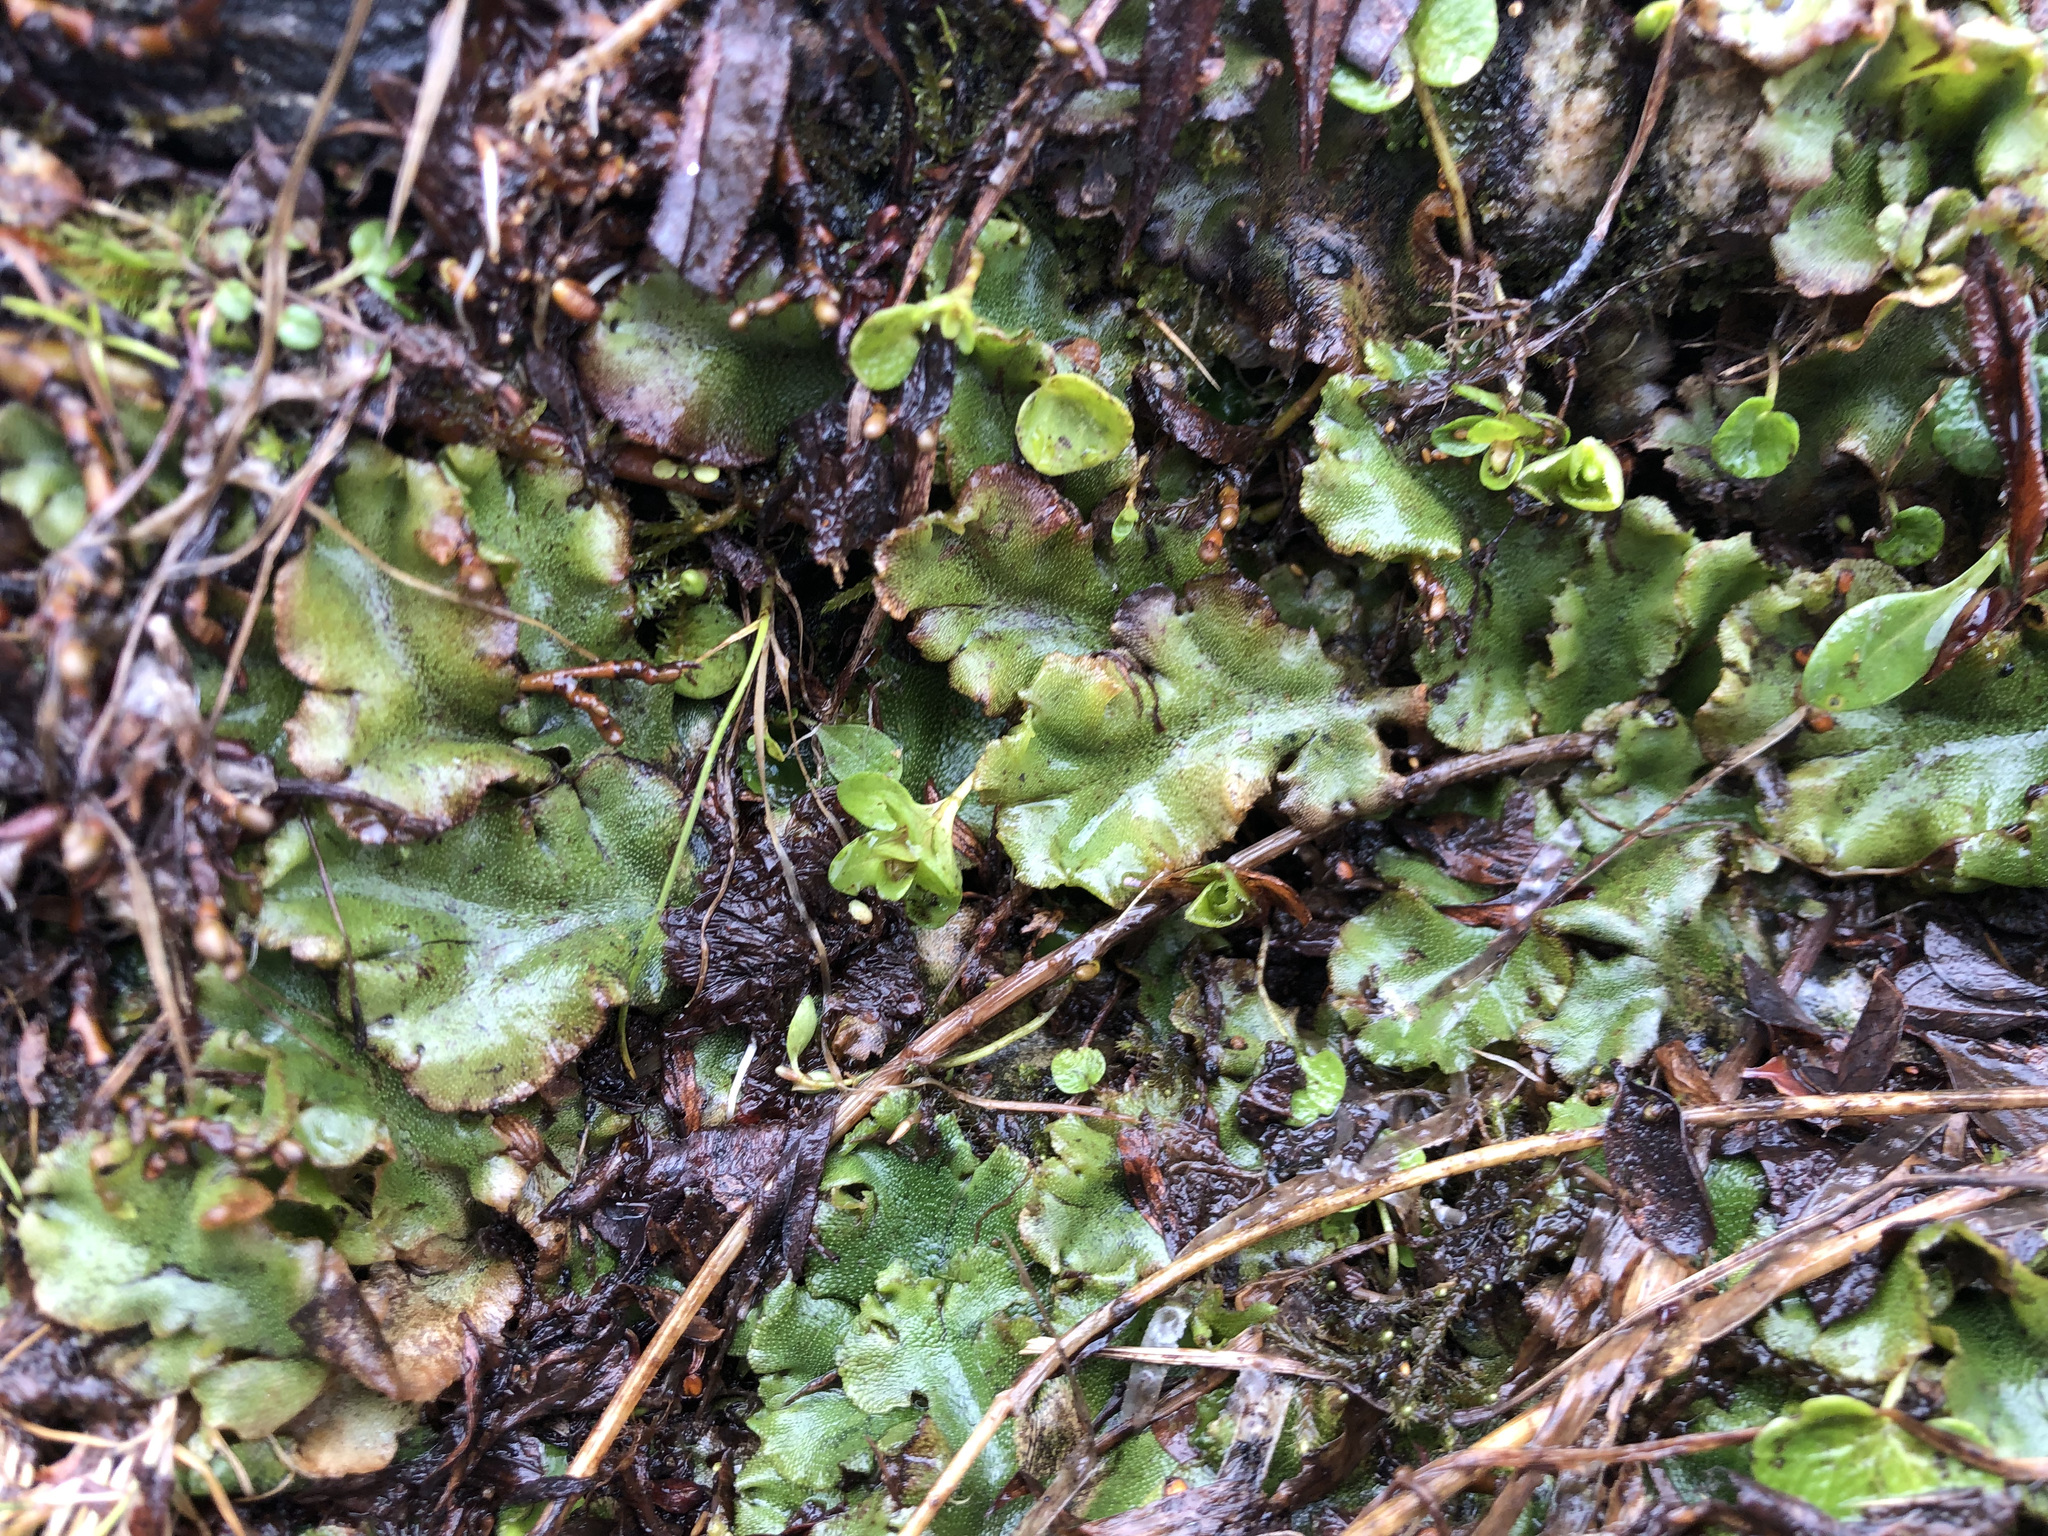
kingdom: Plantae
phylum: Marchantiophyta
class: Marchantiopsida
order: Marchantiales
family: Marchantiaceae
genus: Marchantia
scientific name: Marchantia polymorpha
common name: Common liverwort
